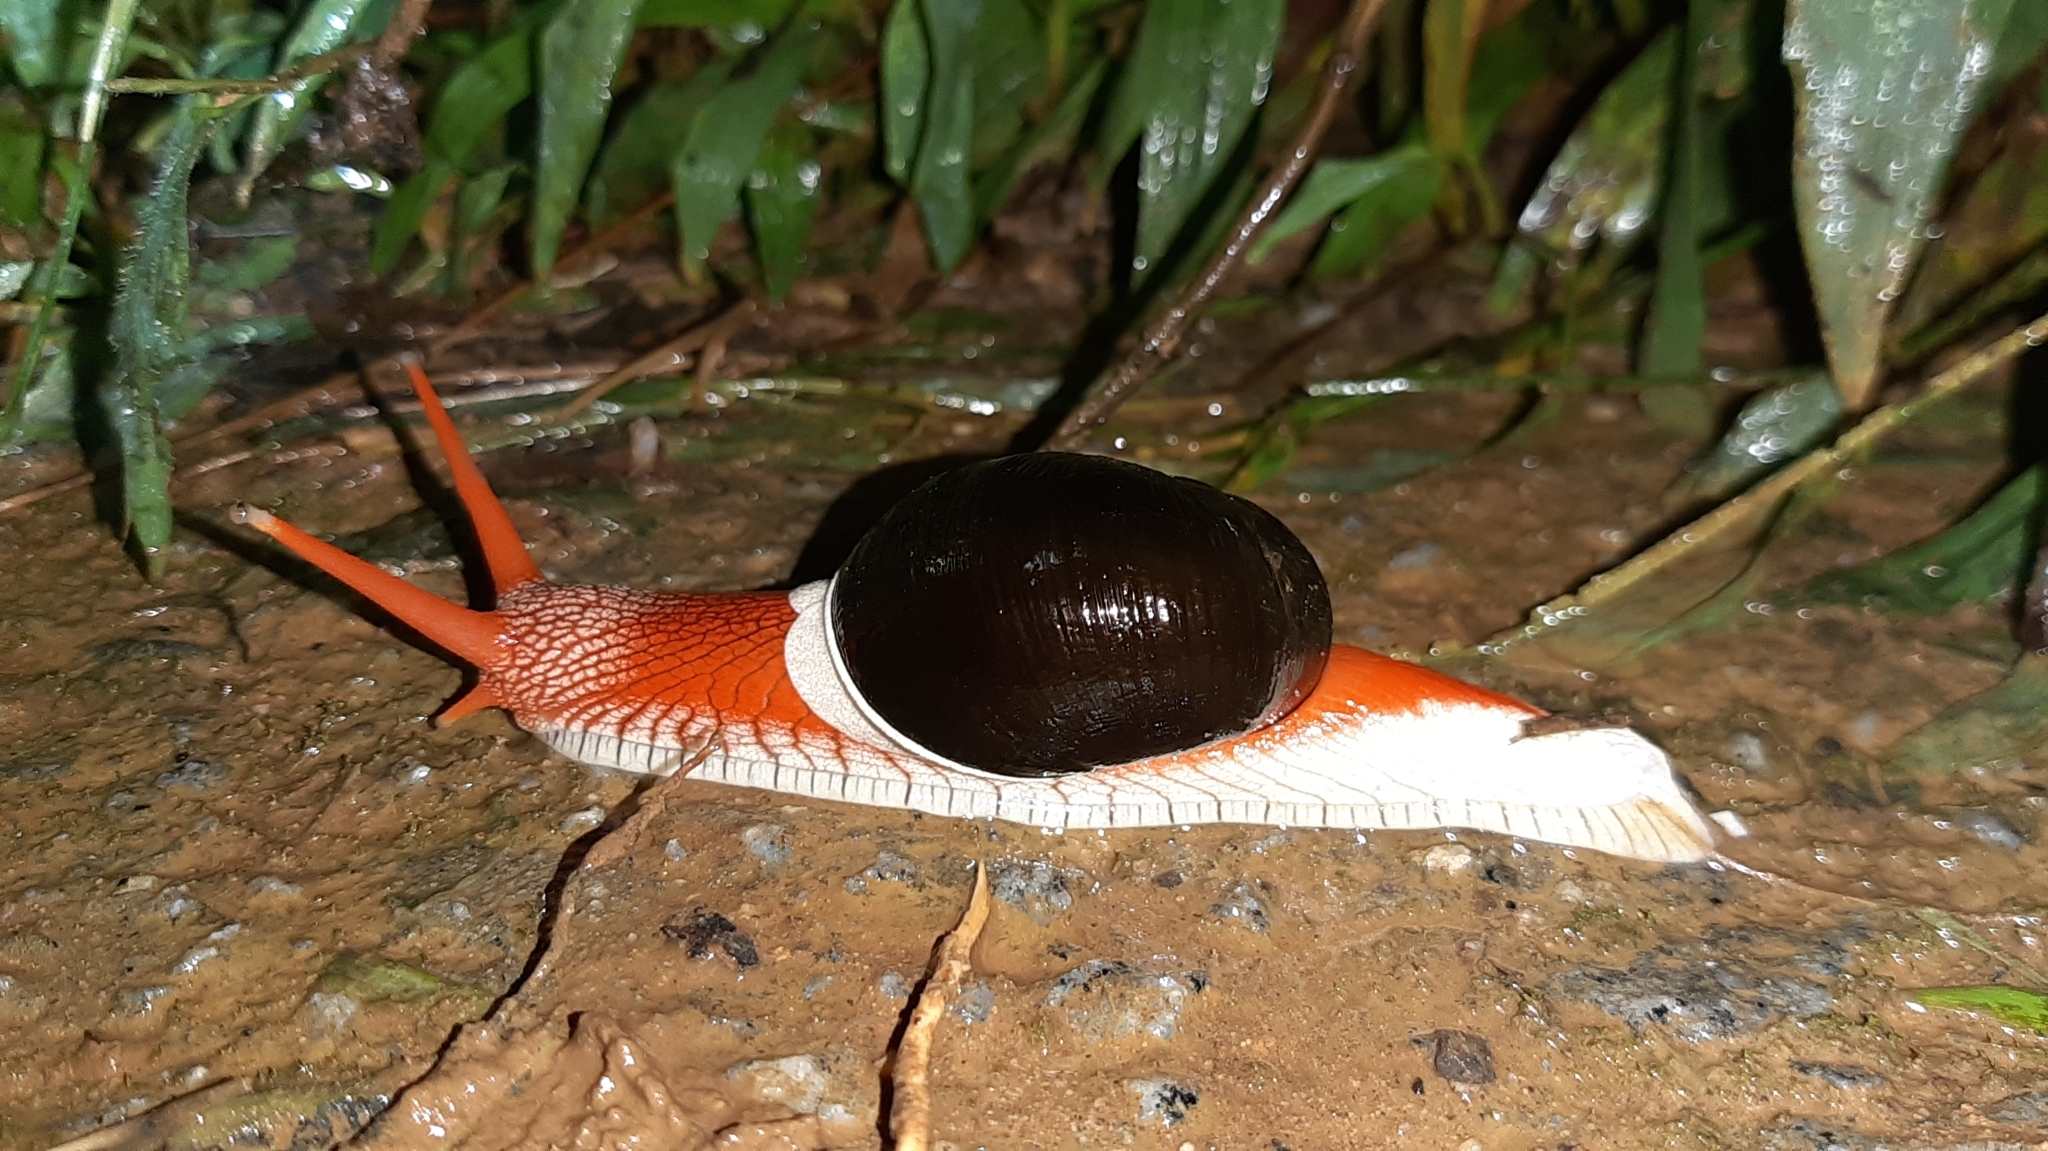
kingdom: Animalia
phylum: Mollusca
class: Gastropoda
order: Stylommatophora
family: Ariophantidae
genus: Indrella
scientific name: Indrella ampulla
